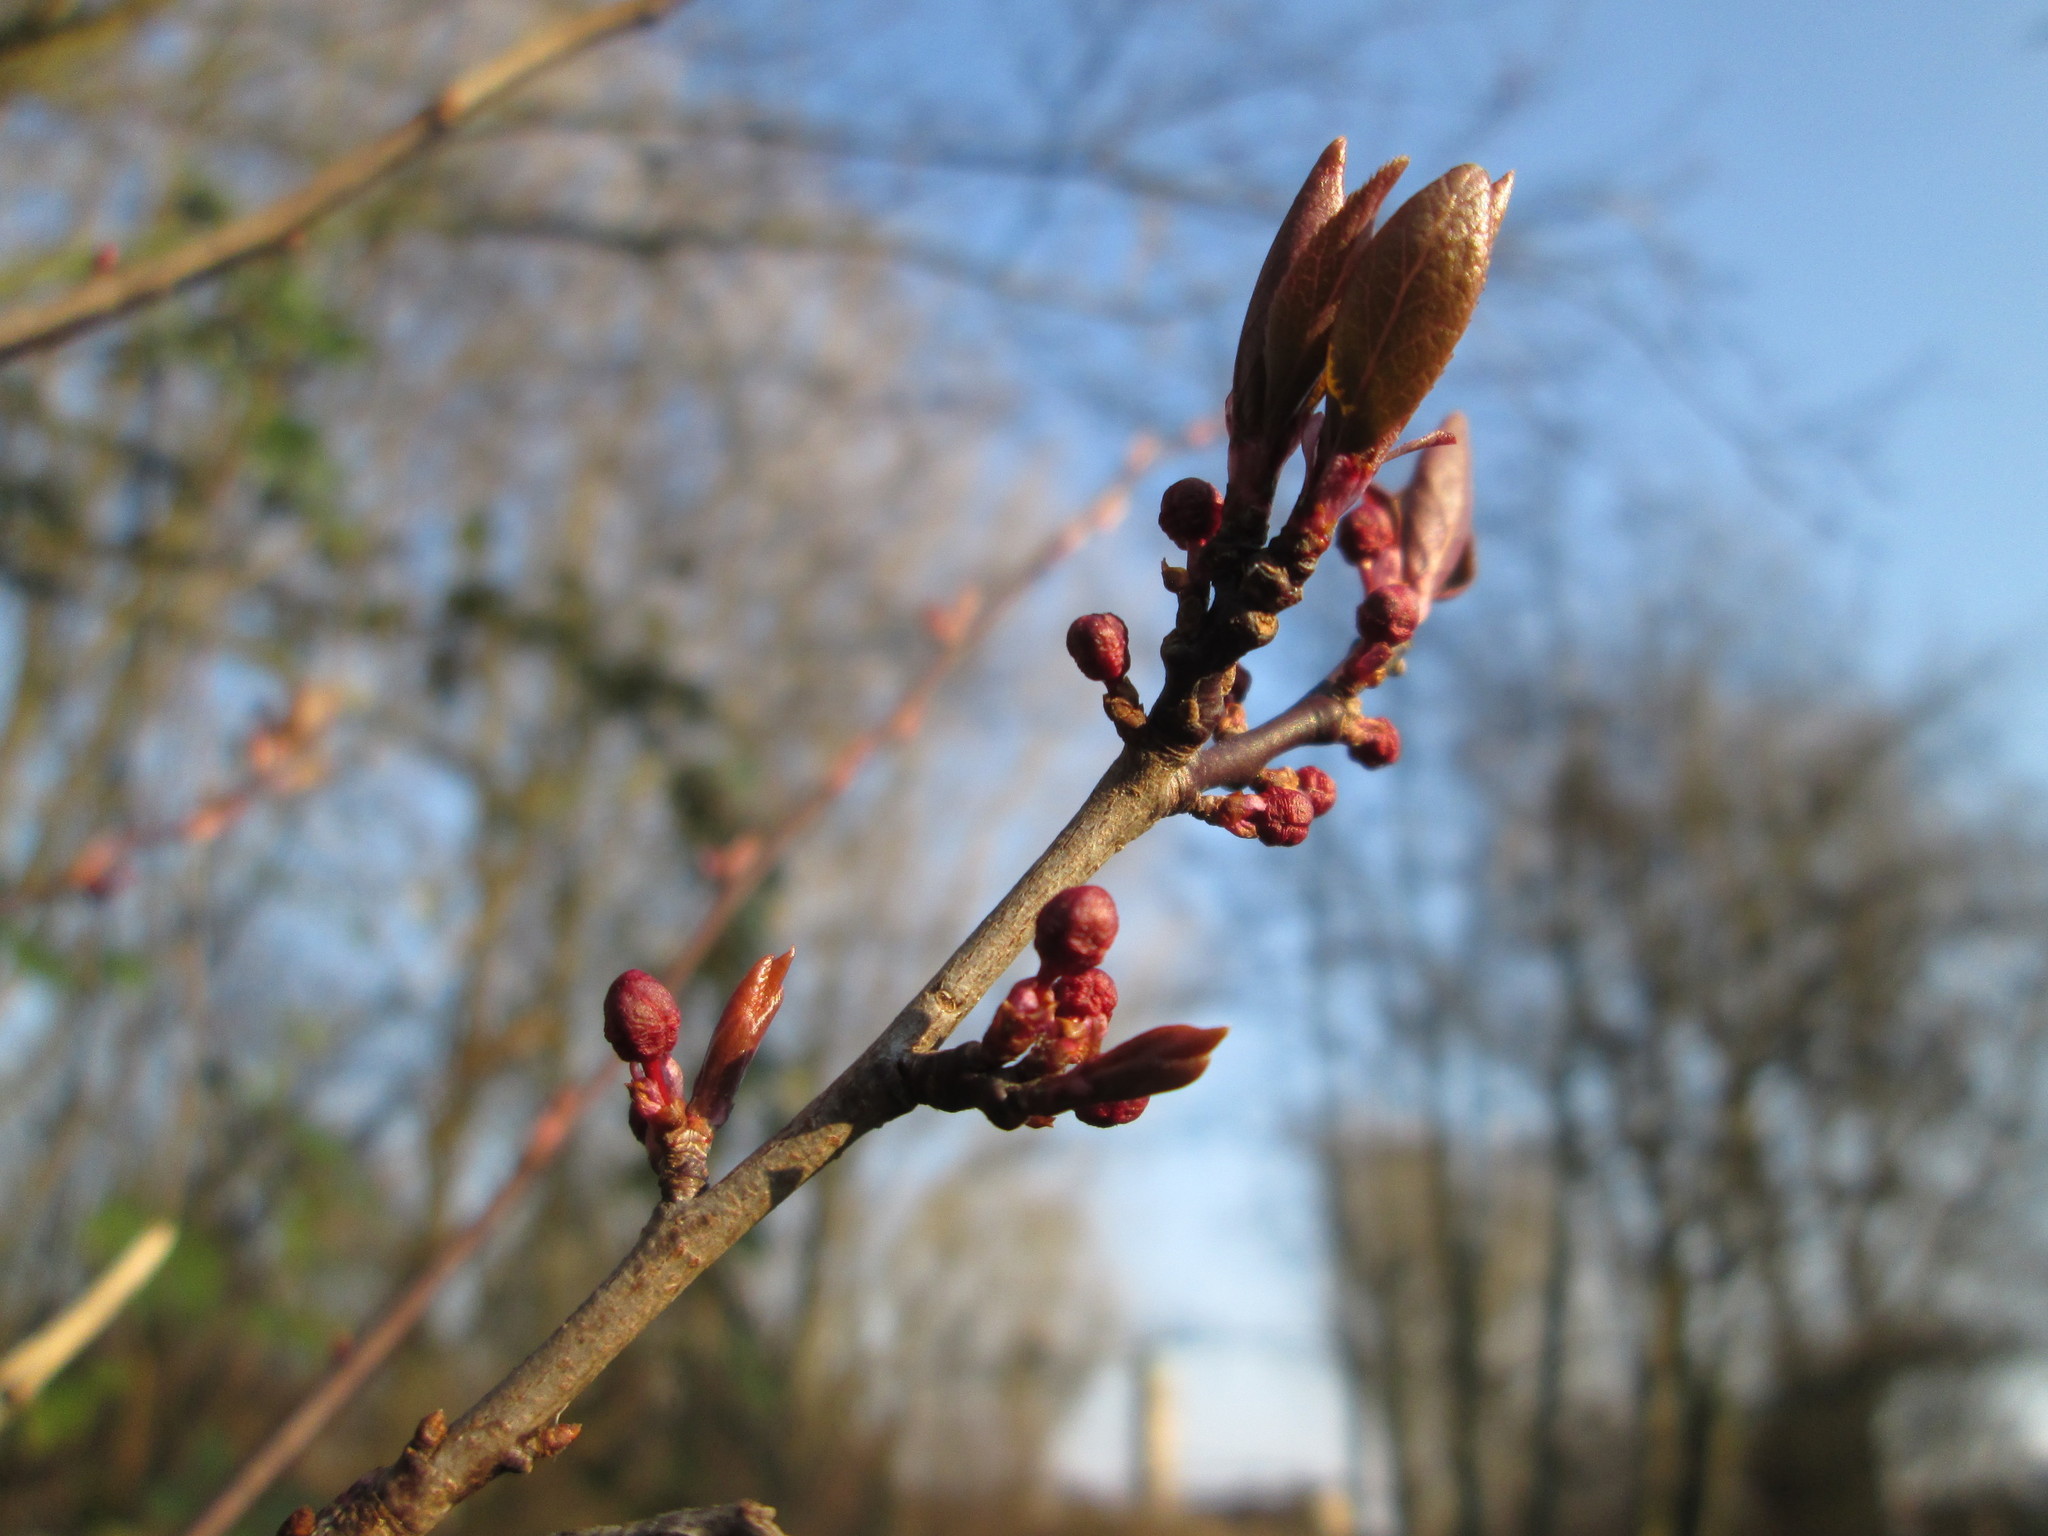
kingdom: Plantae
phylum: Tracheophyta
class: Magnoliopsida
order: Rosales
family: Rosaceae
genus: Prunus
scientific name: Prunus cerasifera
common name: Cherry plum
